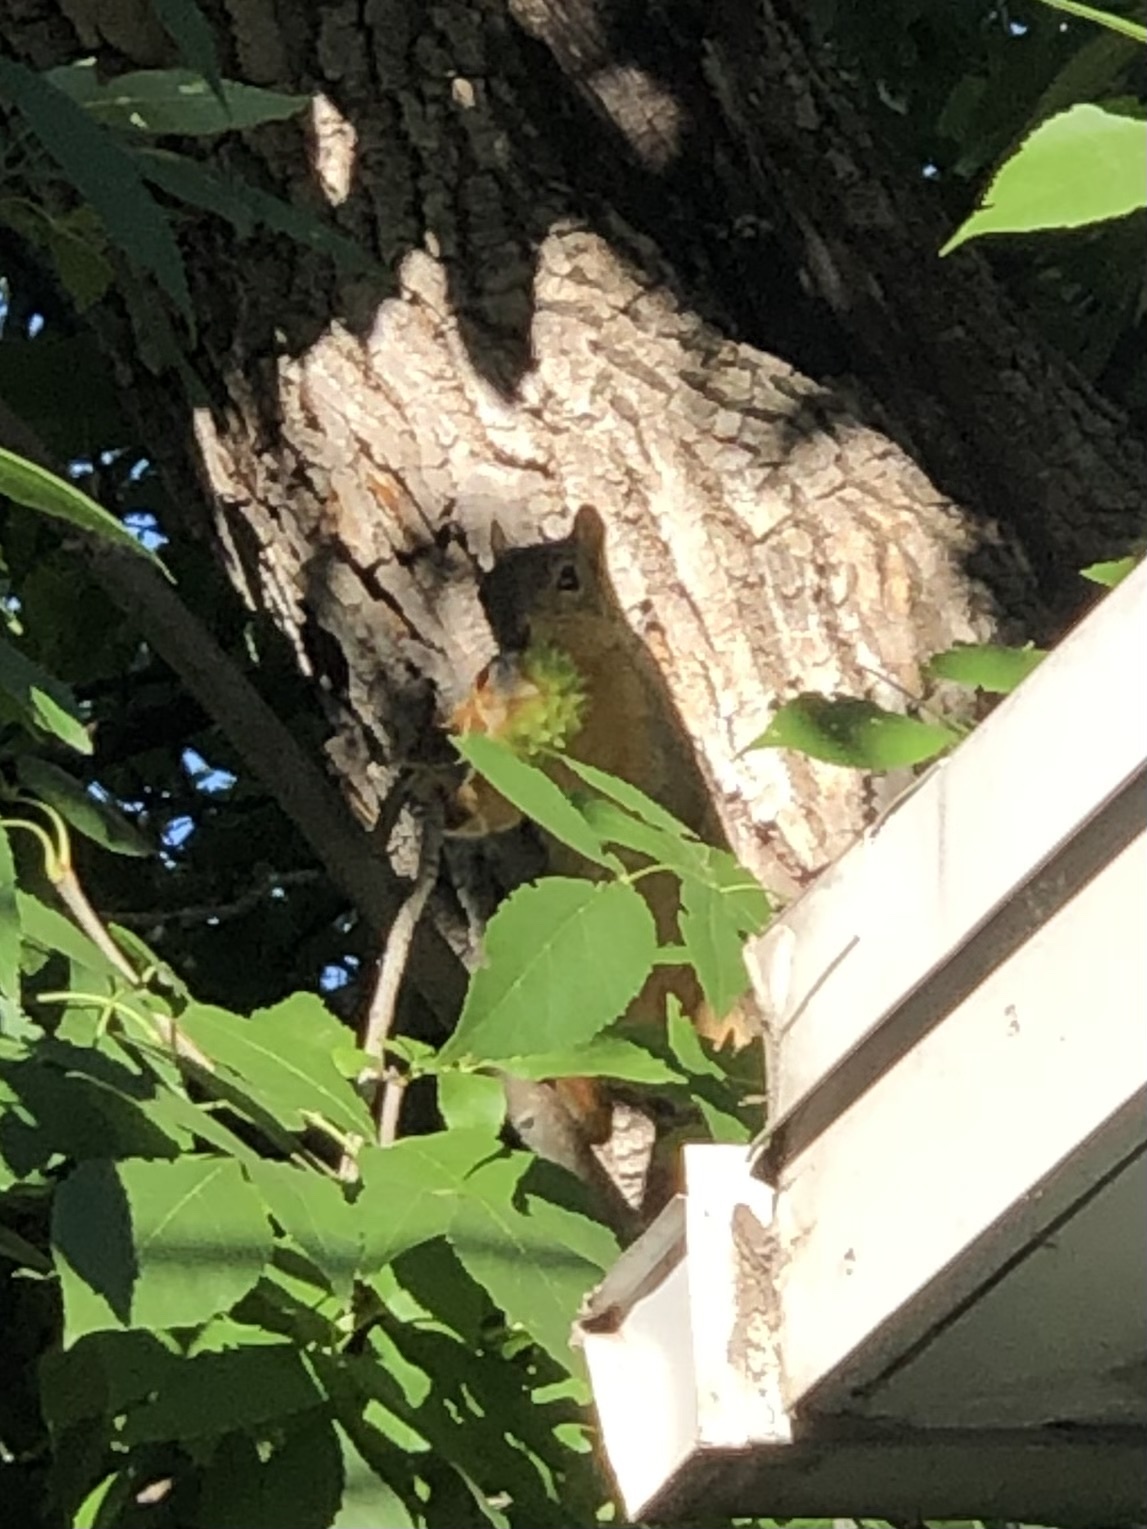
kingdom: Animalia
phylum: Chordata
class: Mammalia
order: Rodentia
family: Sciuridae
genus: Sciurus
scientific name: Sciurus niger
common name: Fox squirrel
